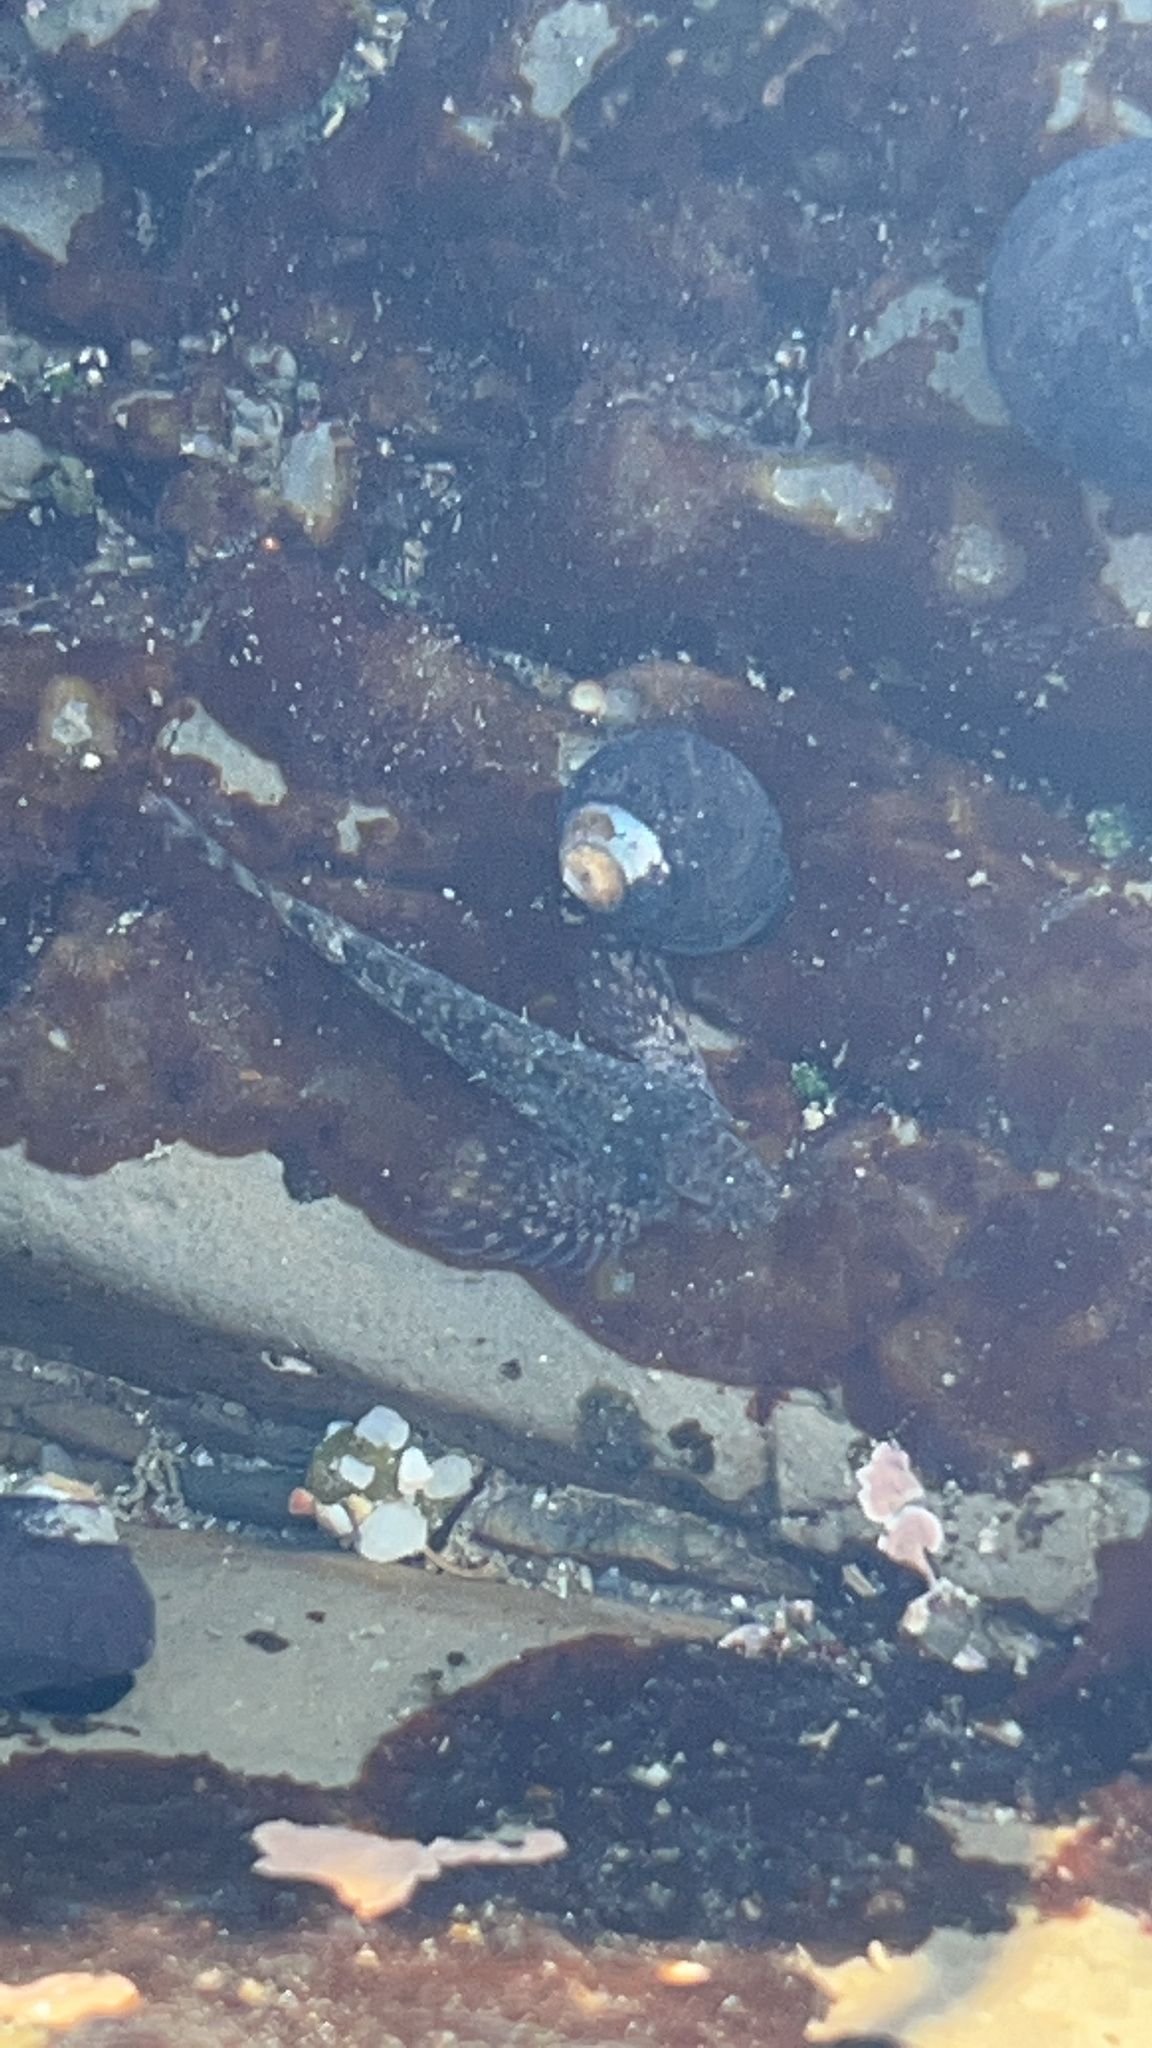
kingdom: Animalia
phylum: Chordata
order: Scorpaeniformes
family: Cottidae
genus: Clinocottus
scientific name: Clinocottus analis
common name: Woolly sculpin
